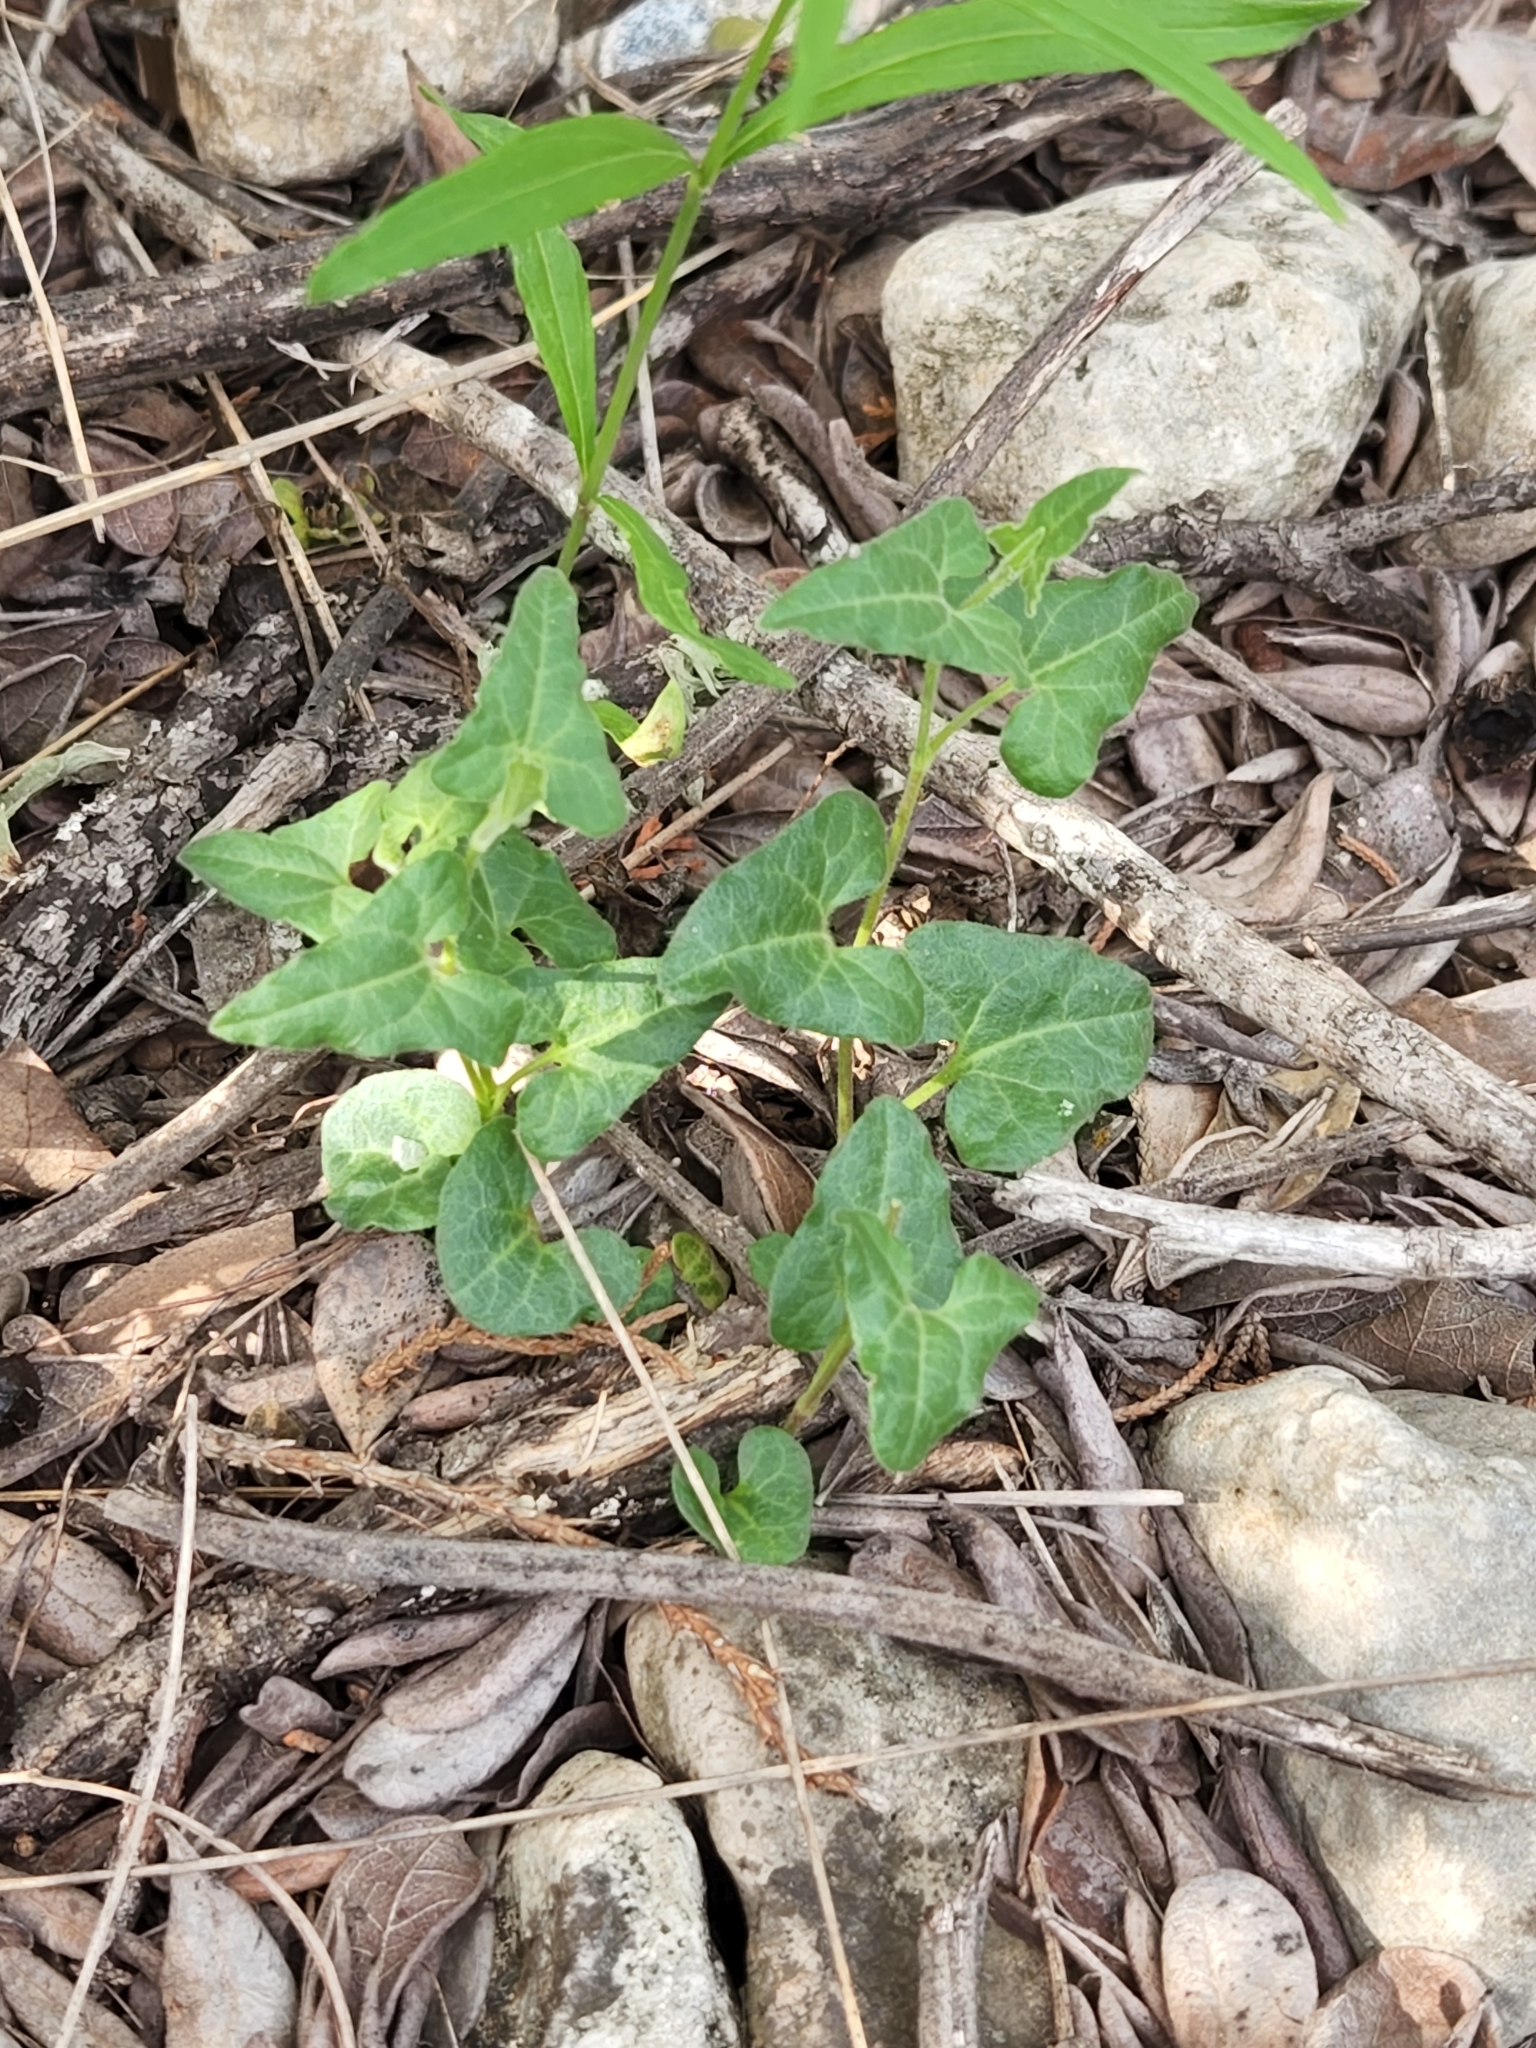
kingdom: Plantae
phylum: Tracheophyta
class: Magnoliopsida
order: Piperales
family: Aristolochiaceae
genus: Aristolochia
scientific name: Aristolochia coryi
